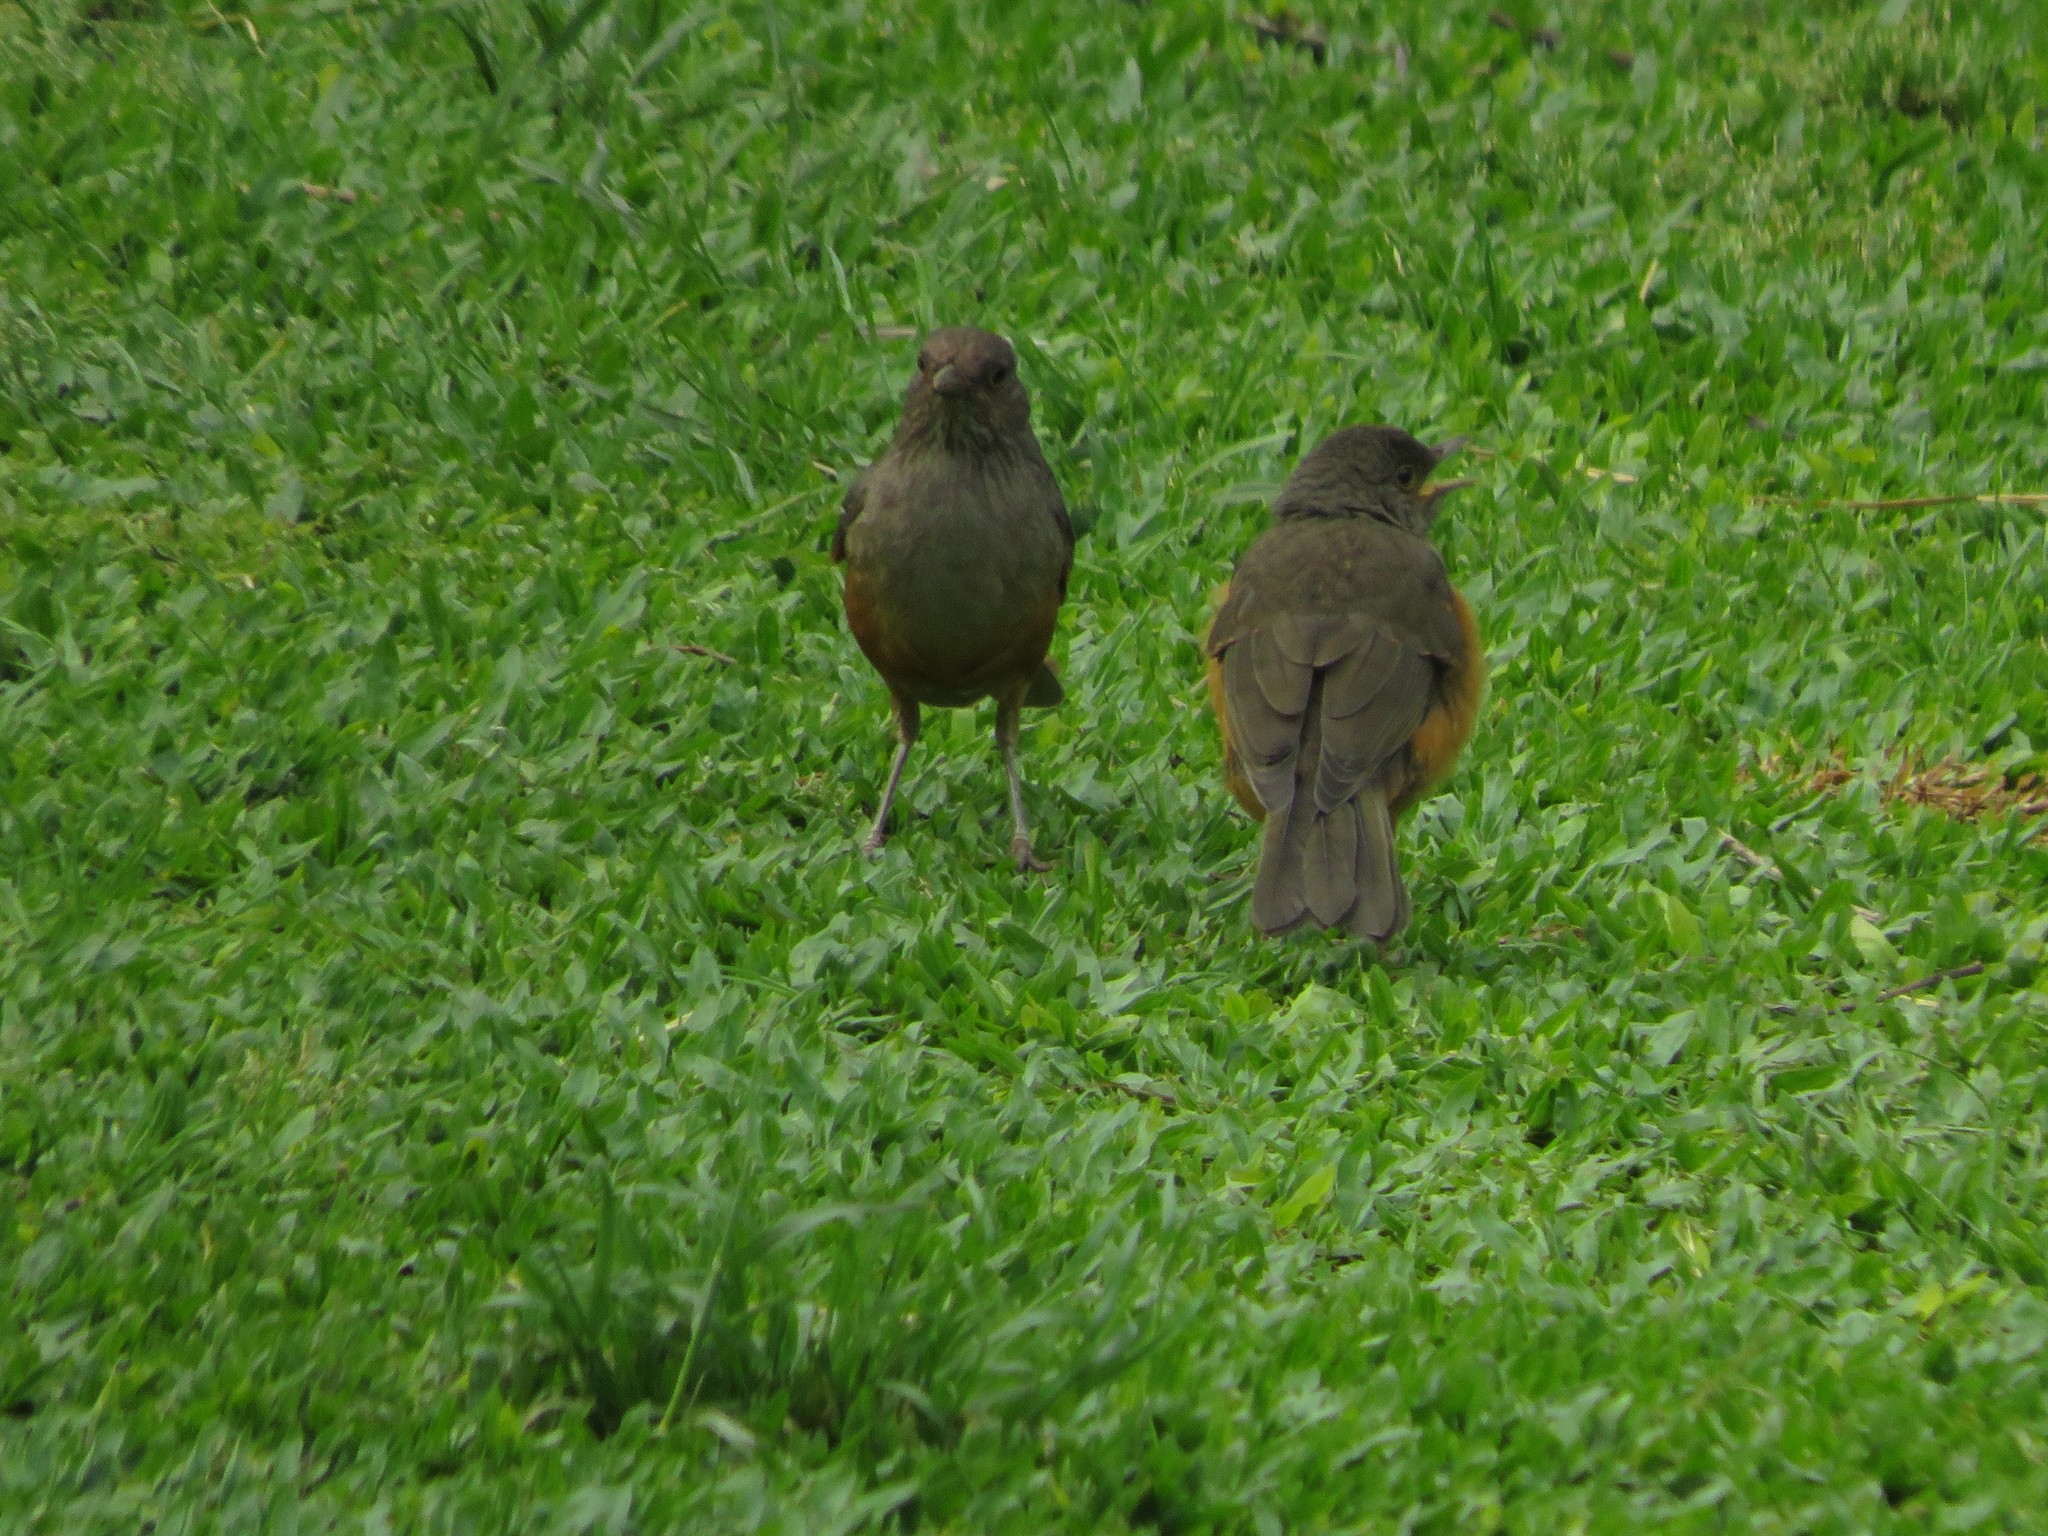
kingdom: Animalia
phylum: Chordata
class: Aves
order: Passeriformes
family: Turdidae
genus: Turdus
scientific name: Turdus rufiventris
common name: Rufous-bellied thrush
